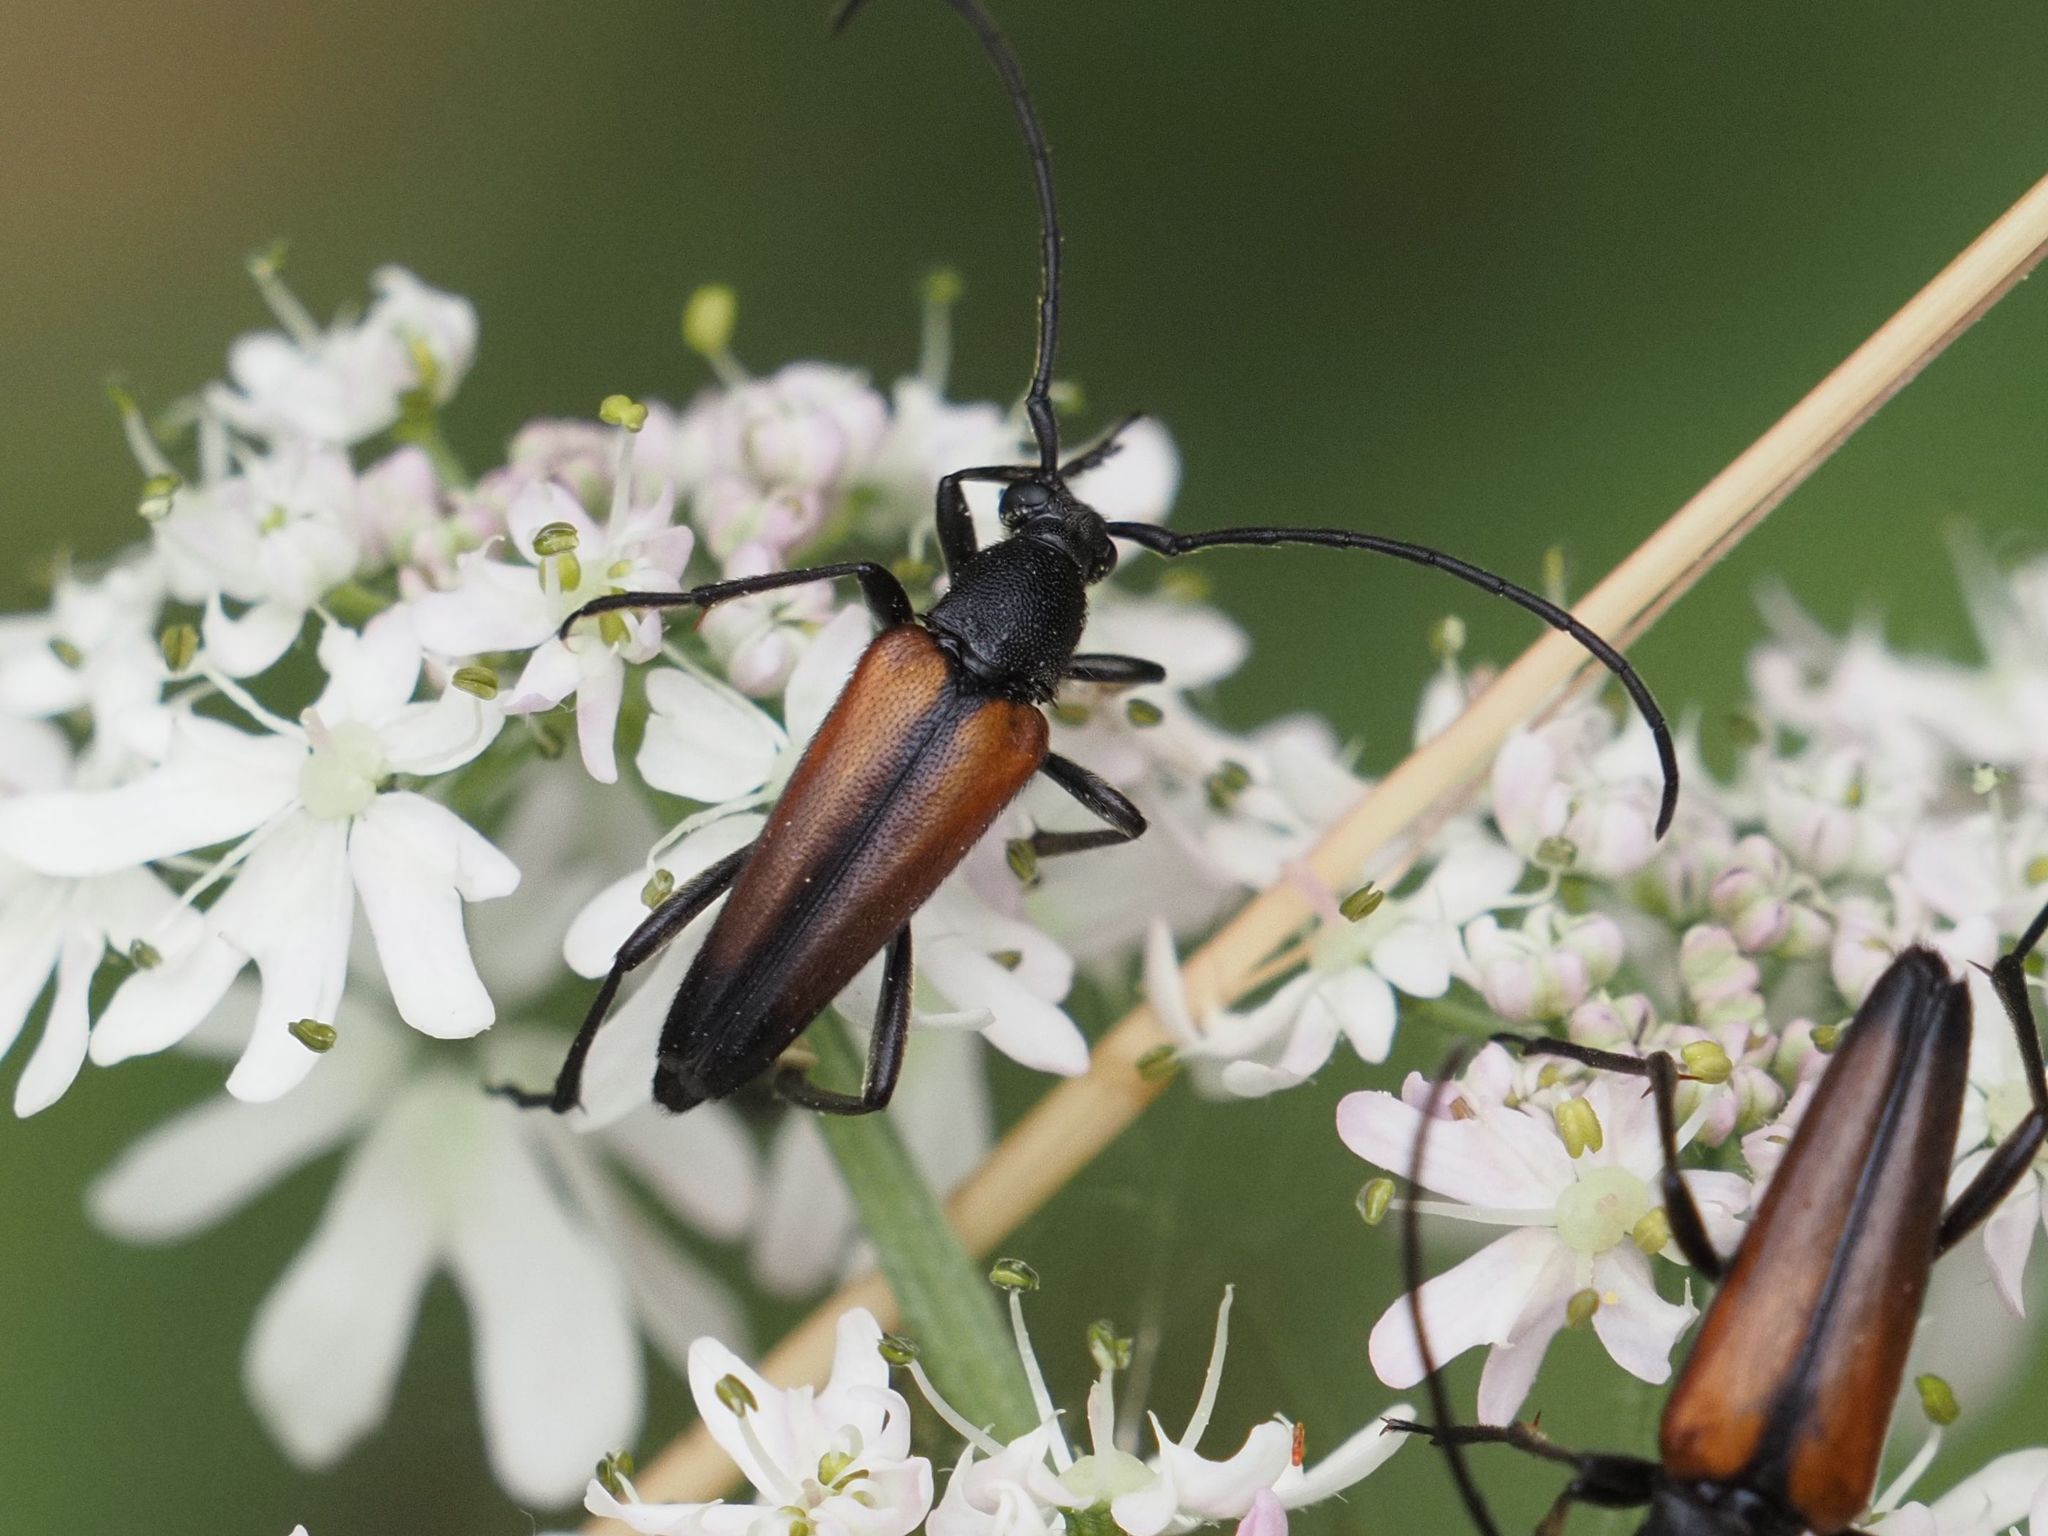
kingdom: Animalia
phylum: Arthropoda
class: Insecta
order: Coleoptera
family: Cerambycidae
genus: Stenurella
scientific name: Stenurella melanura
